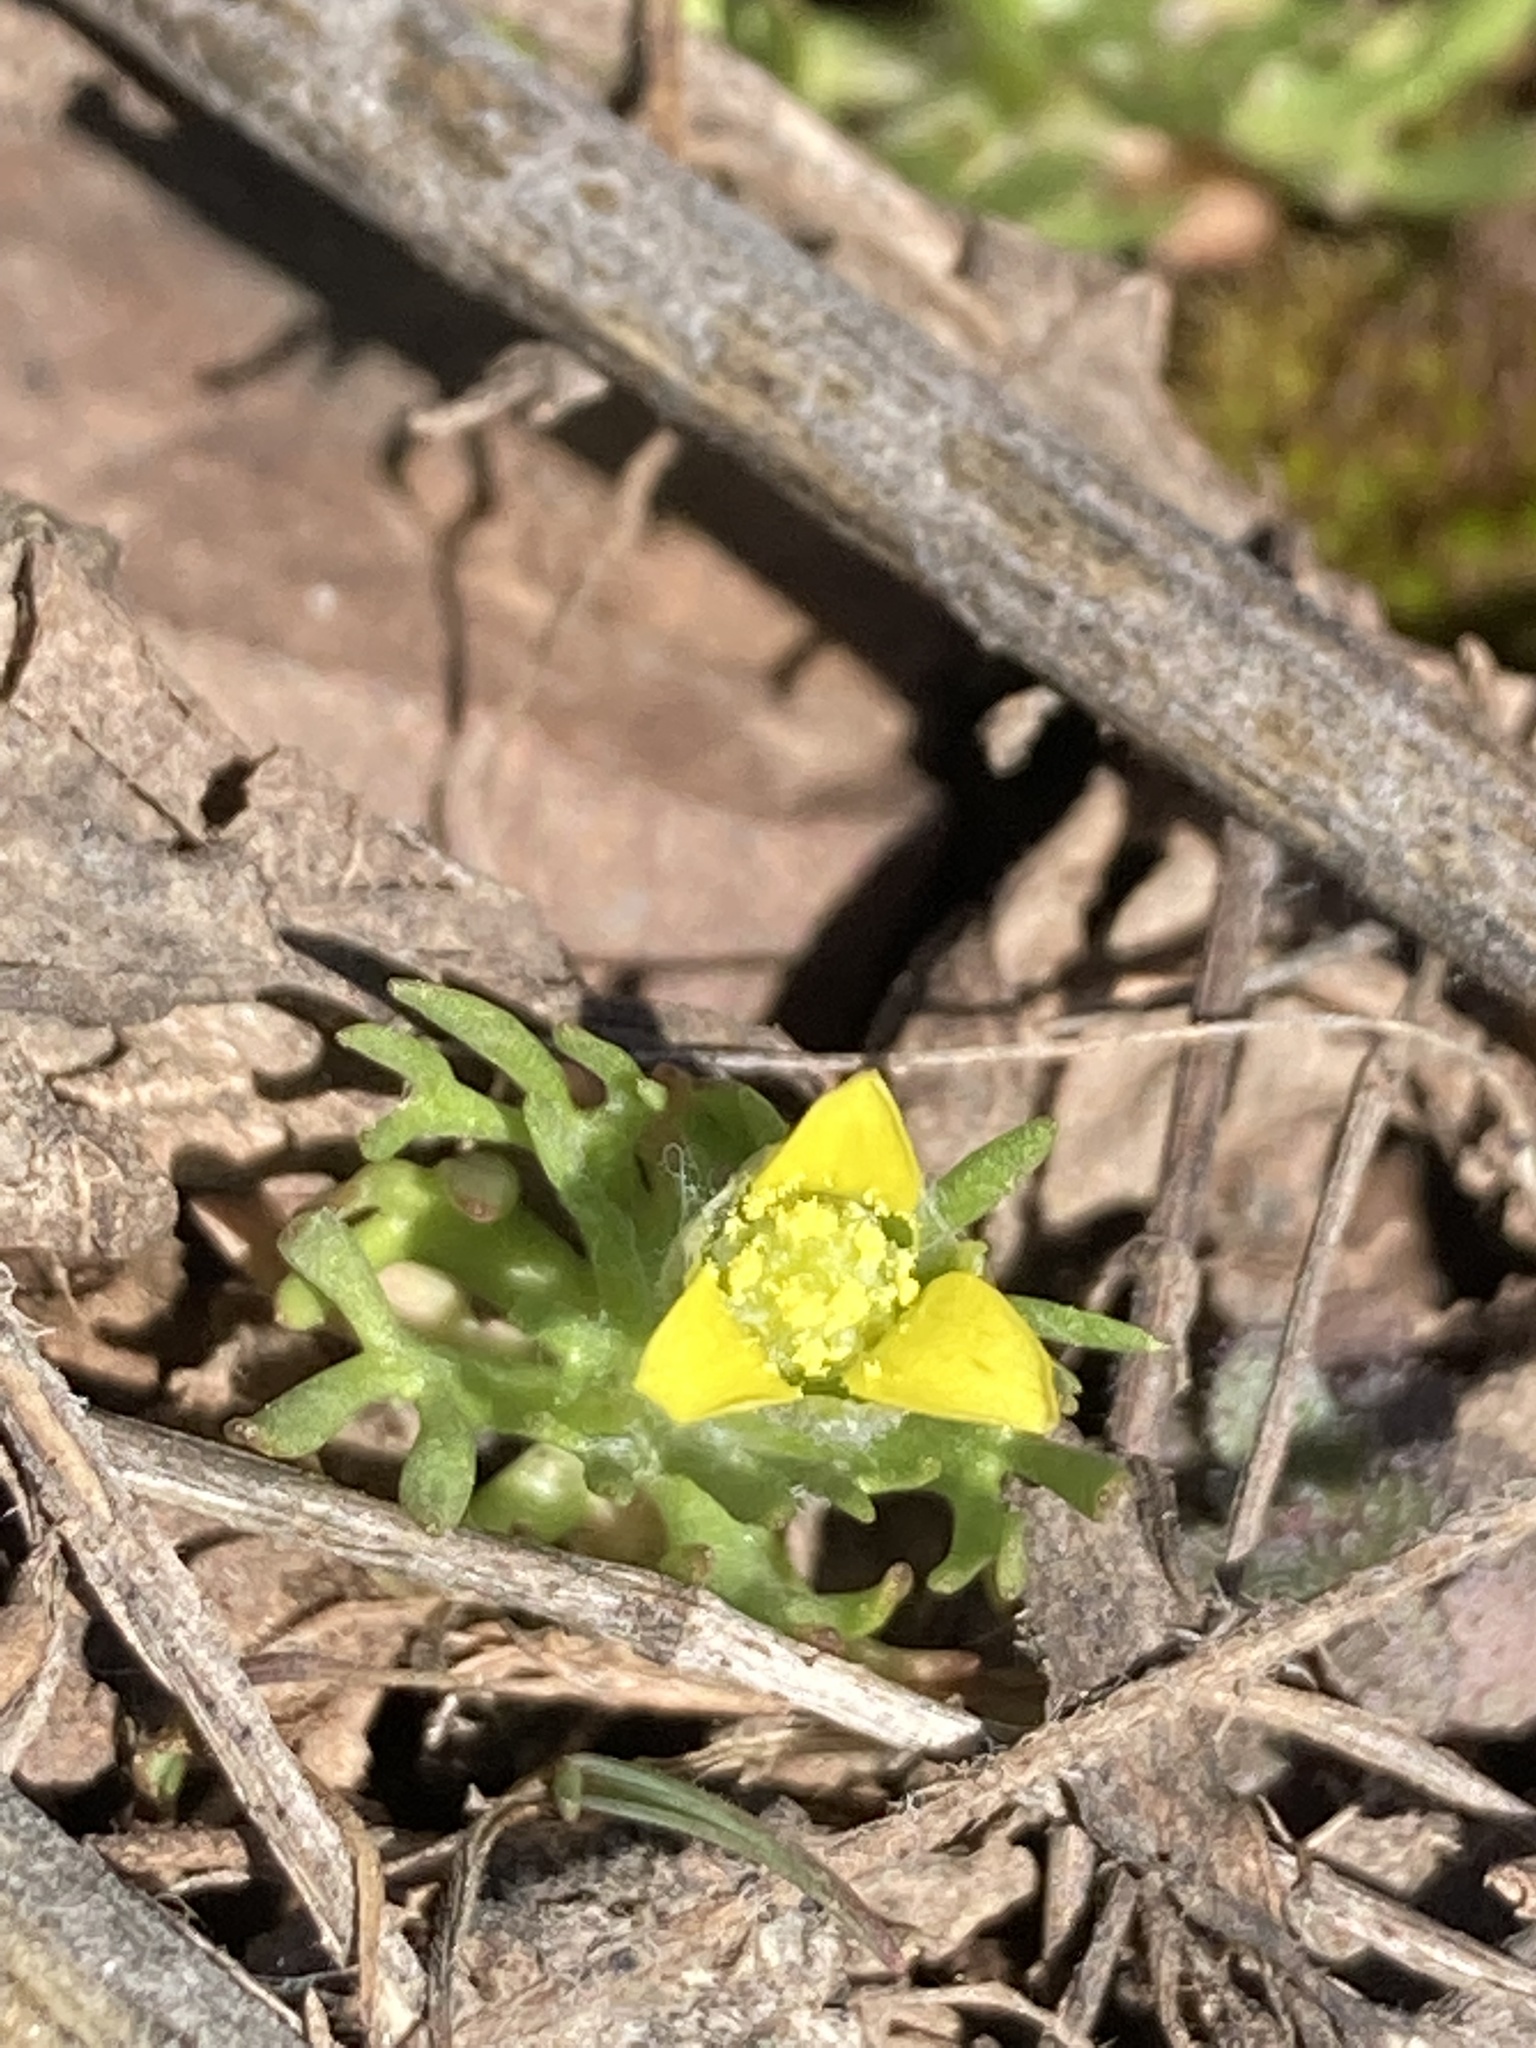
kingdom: Plantae
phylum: Tracheophyta
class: Magnoliopsida
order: Ranunculales
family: Ranunculaceae
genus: Ceratocephala
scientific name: Ceratocephala orthoceras
